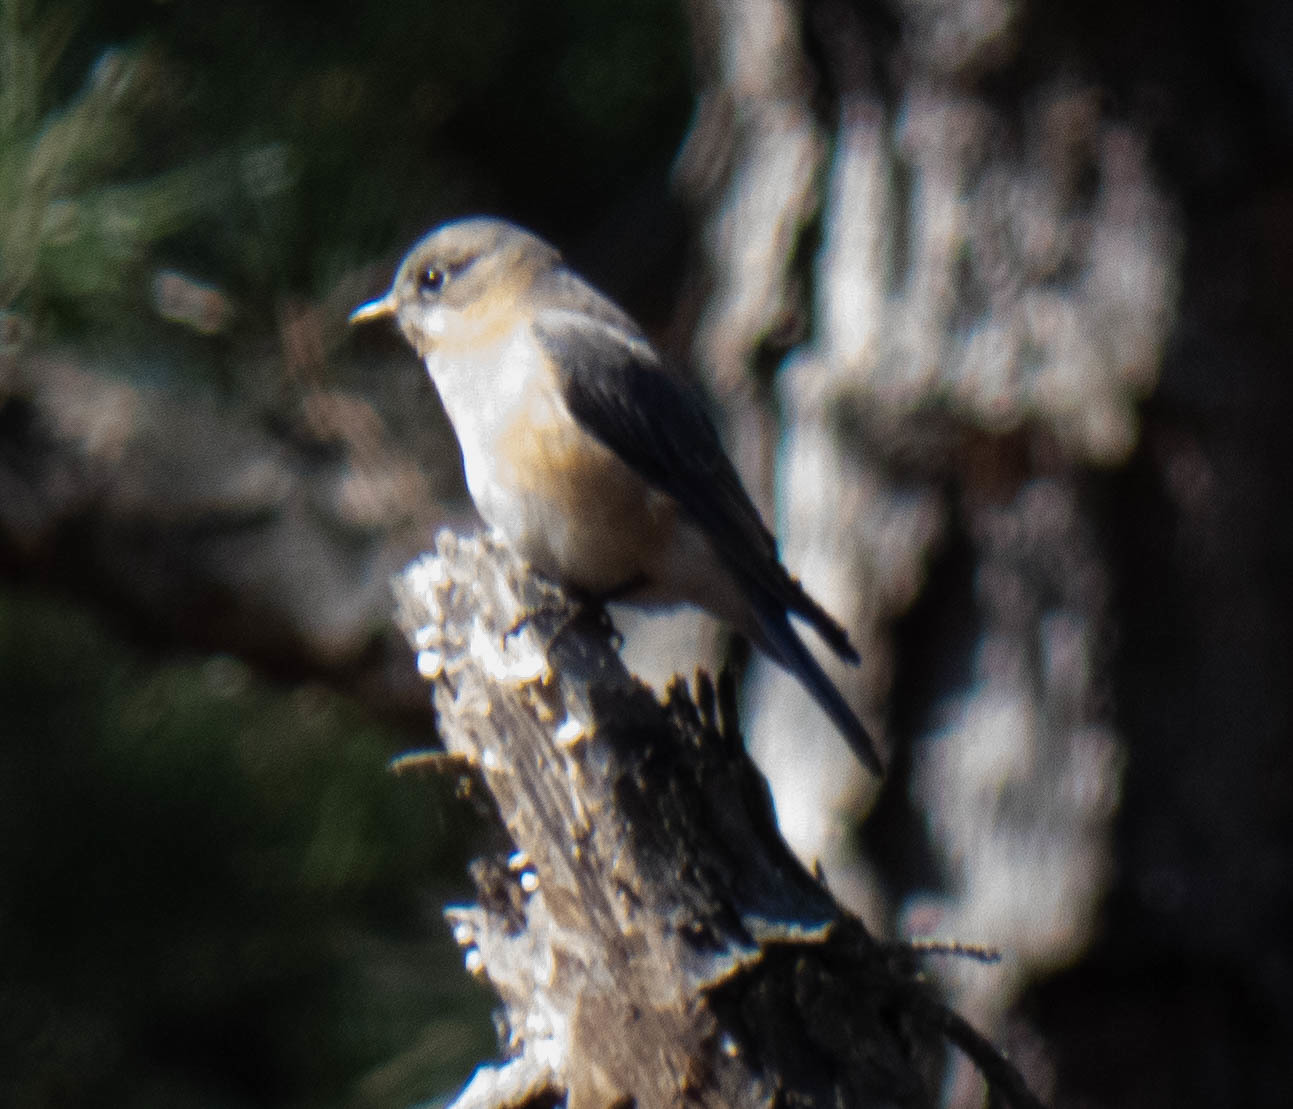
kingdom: Animalia
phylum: Chordata
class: Aves
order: Passeriformes
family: Turdidae
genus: Sialia
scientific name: Sialia sialis
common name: Eastern bluebird
